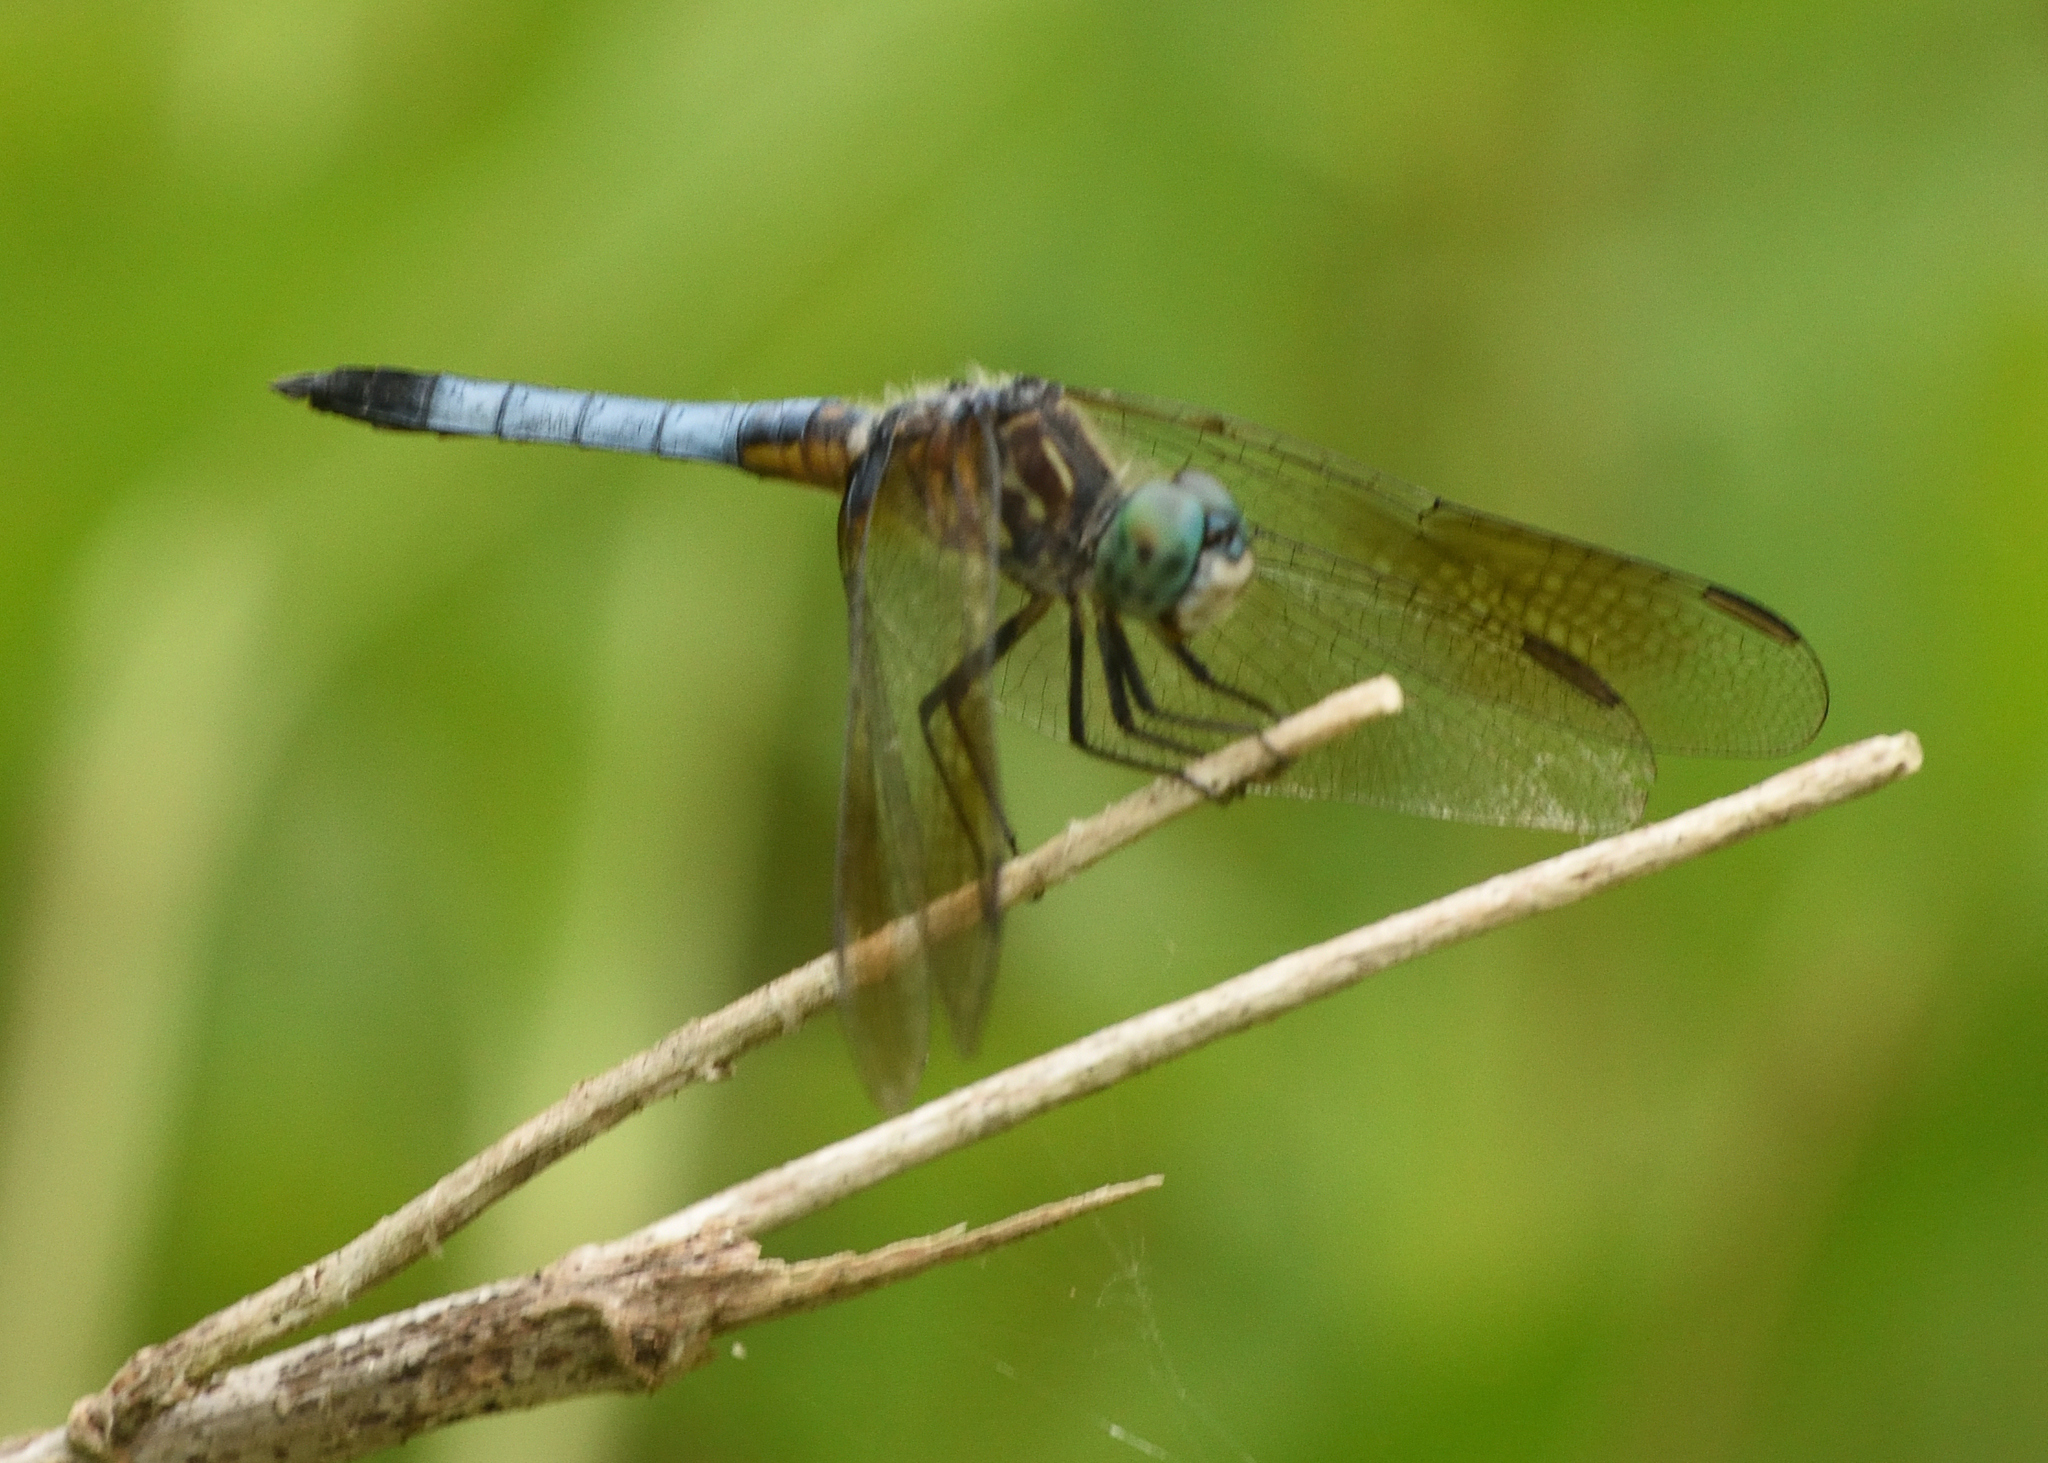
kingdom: Animalia
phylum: Arthropoda
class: Insecta
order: Odonata
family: Libellulidae
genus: Pachydiplax
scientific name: Pachydiplax longipennis
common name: Blue dasher
